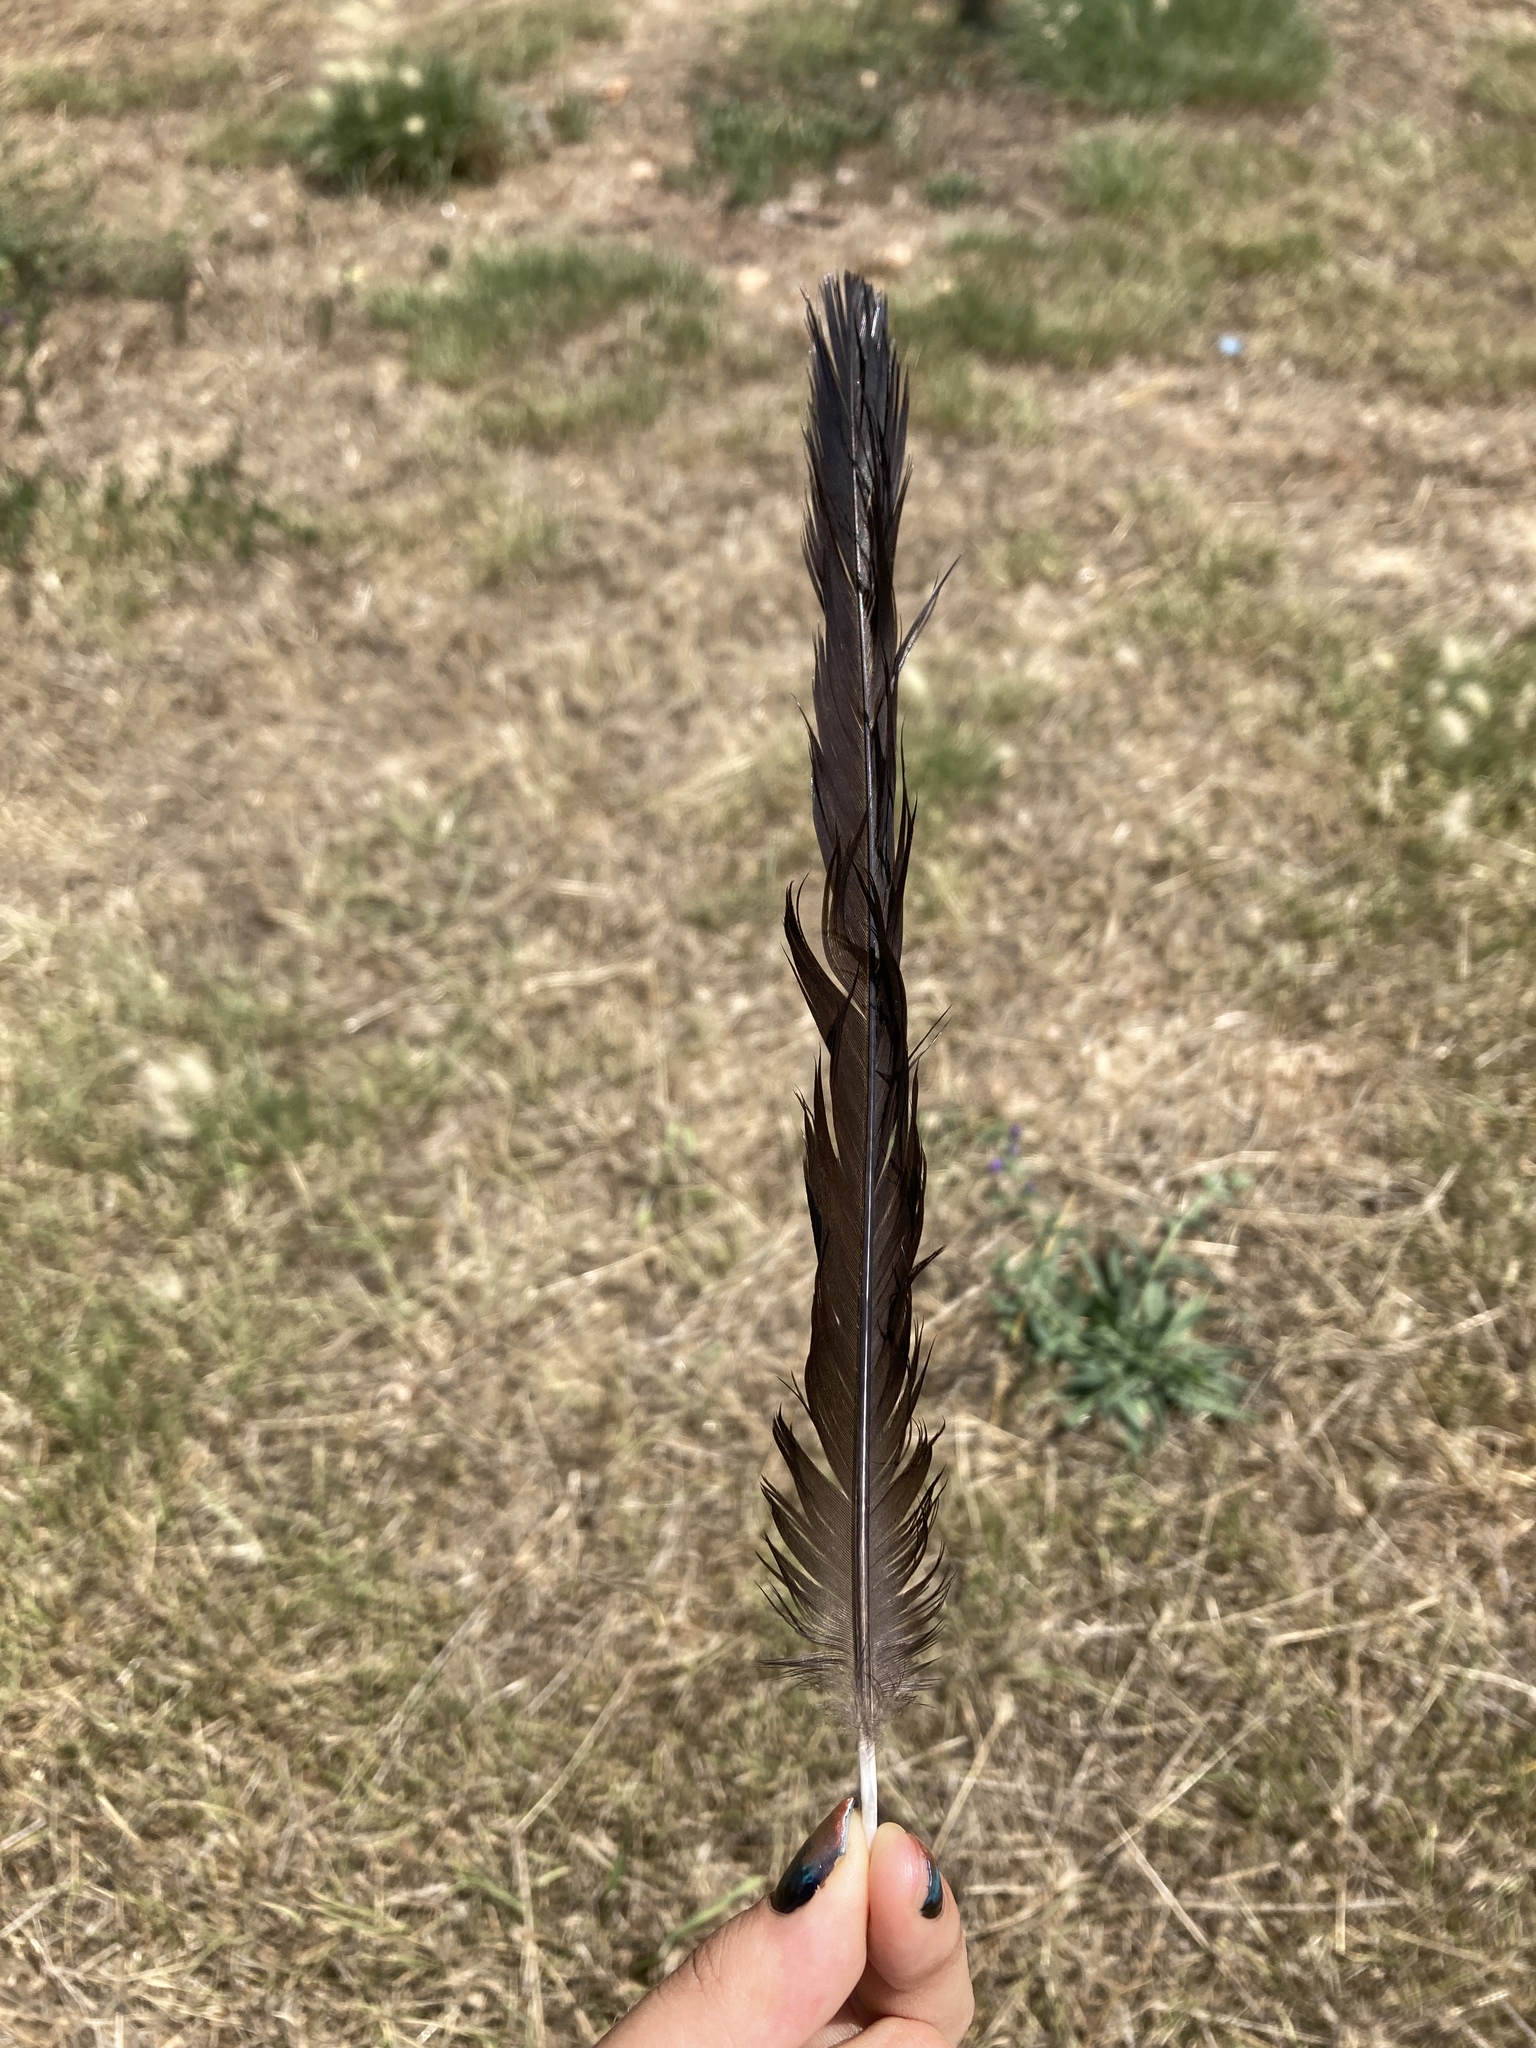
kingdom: Animalia
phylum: Chordata
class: Aves
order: Passeriformes
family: Corvidae
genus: Pica
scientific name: Pica pica
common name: Eurasian magpie
